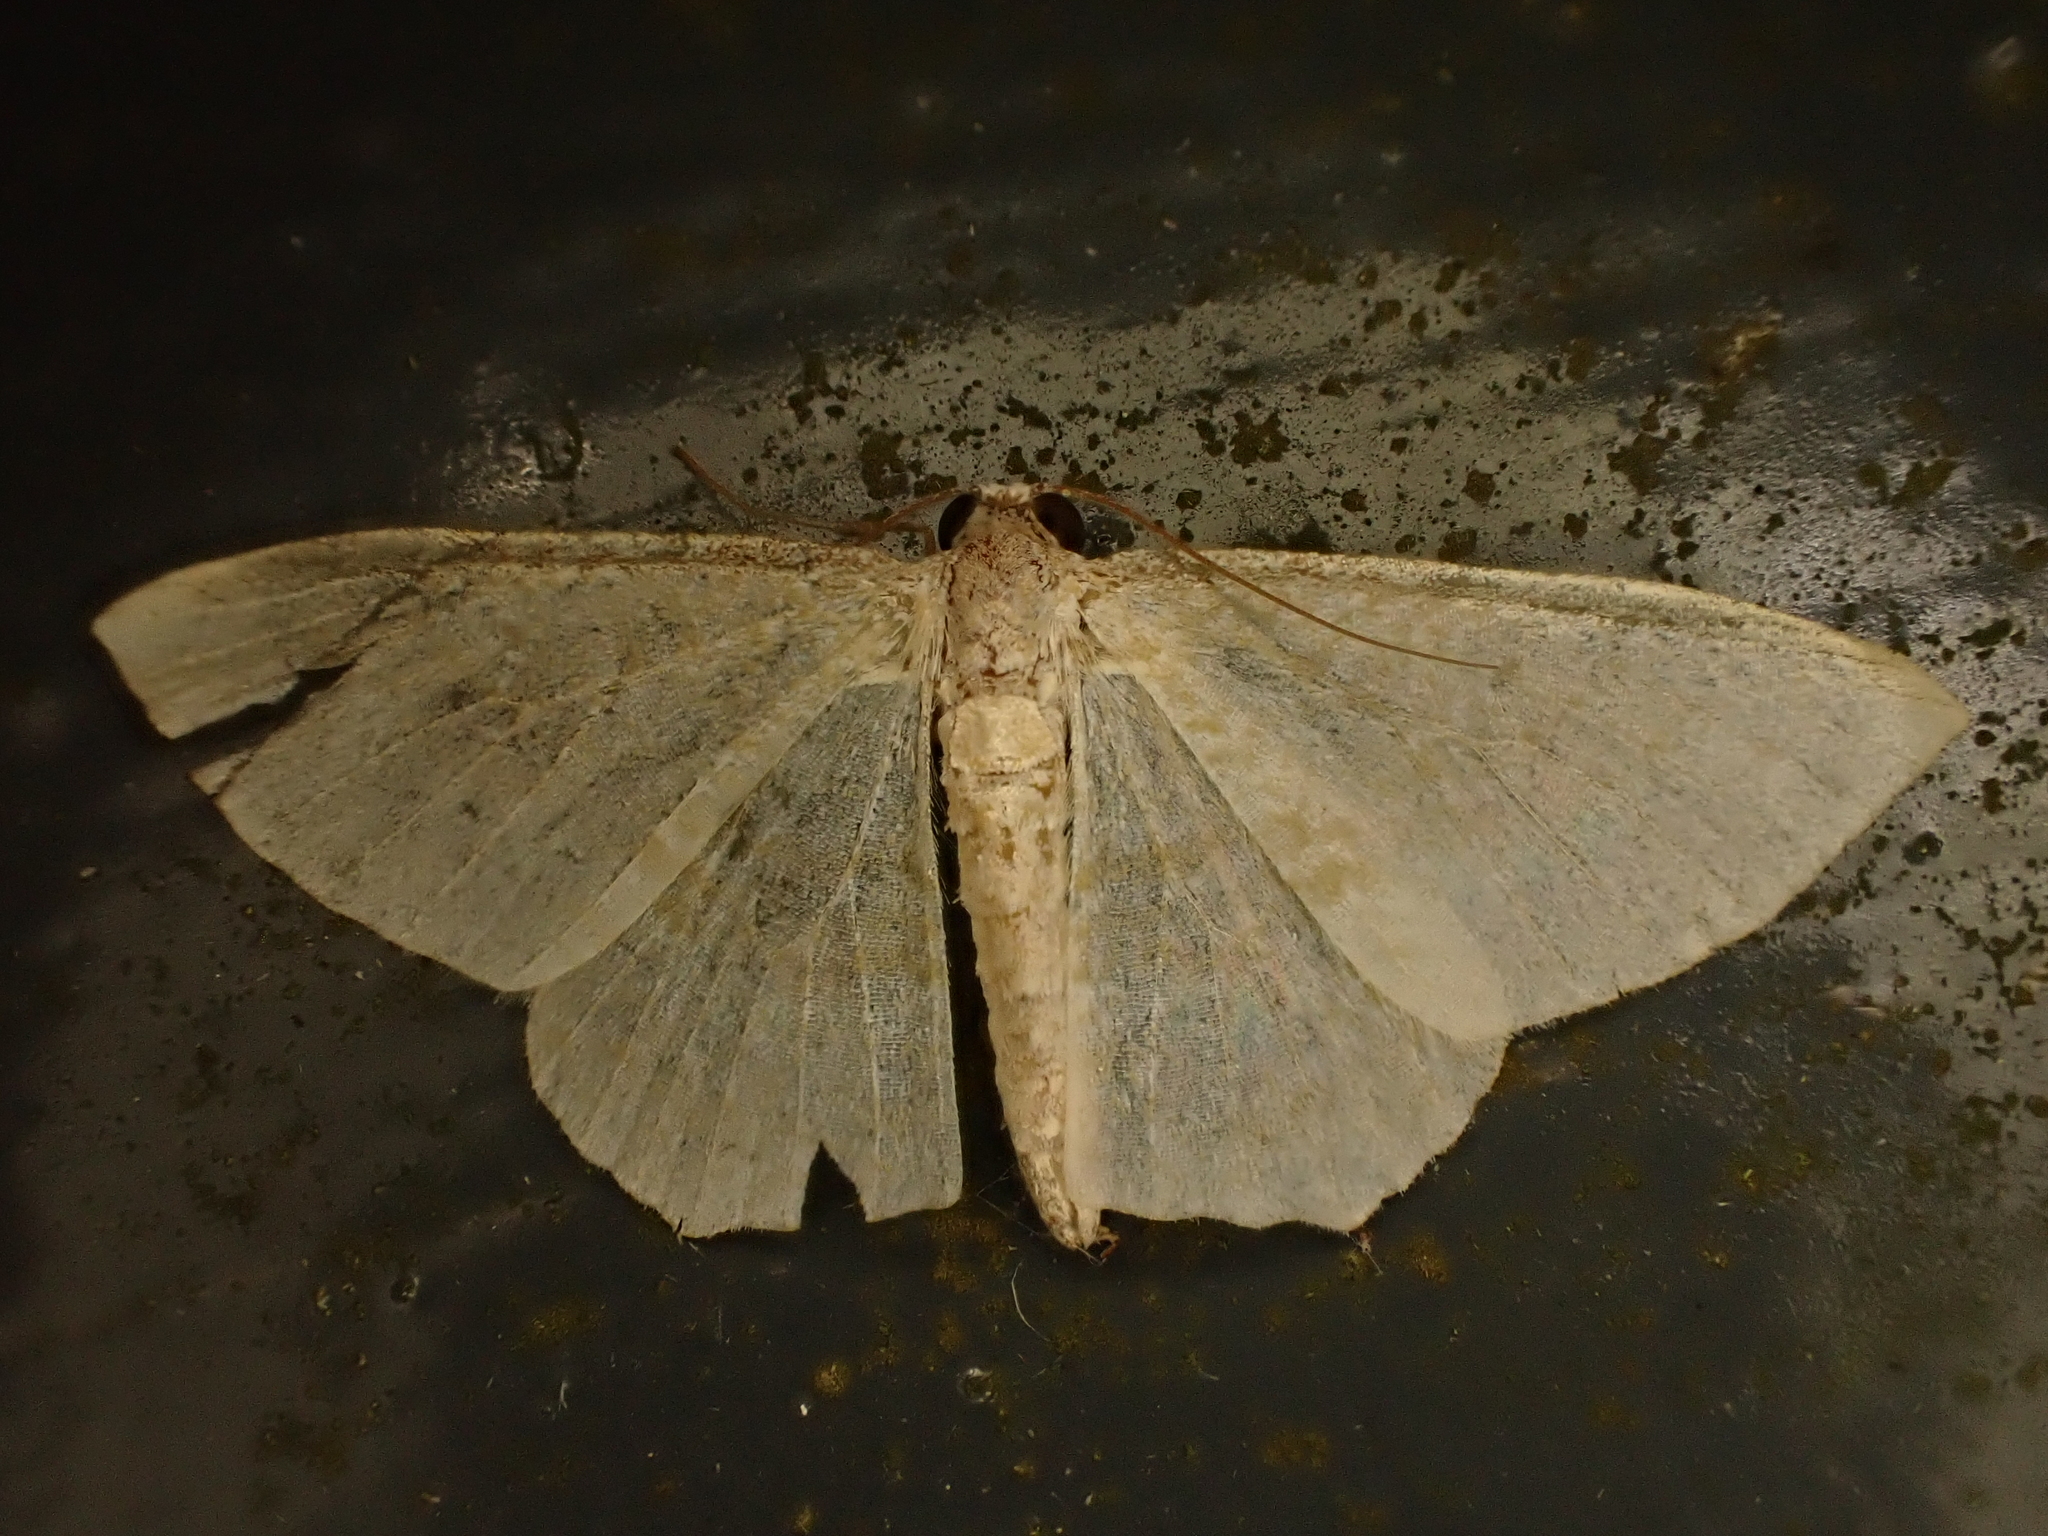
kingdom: Animalia
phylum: Arthropoda
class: Insecta
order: Lepidoptera
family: Geometridae
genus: Poecilasthena
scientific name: Poecilasthena pulchraria
